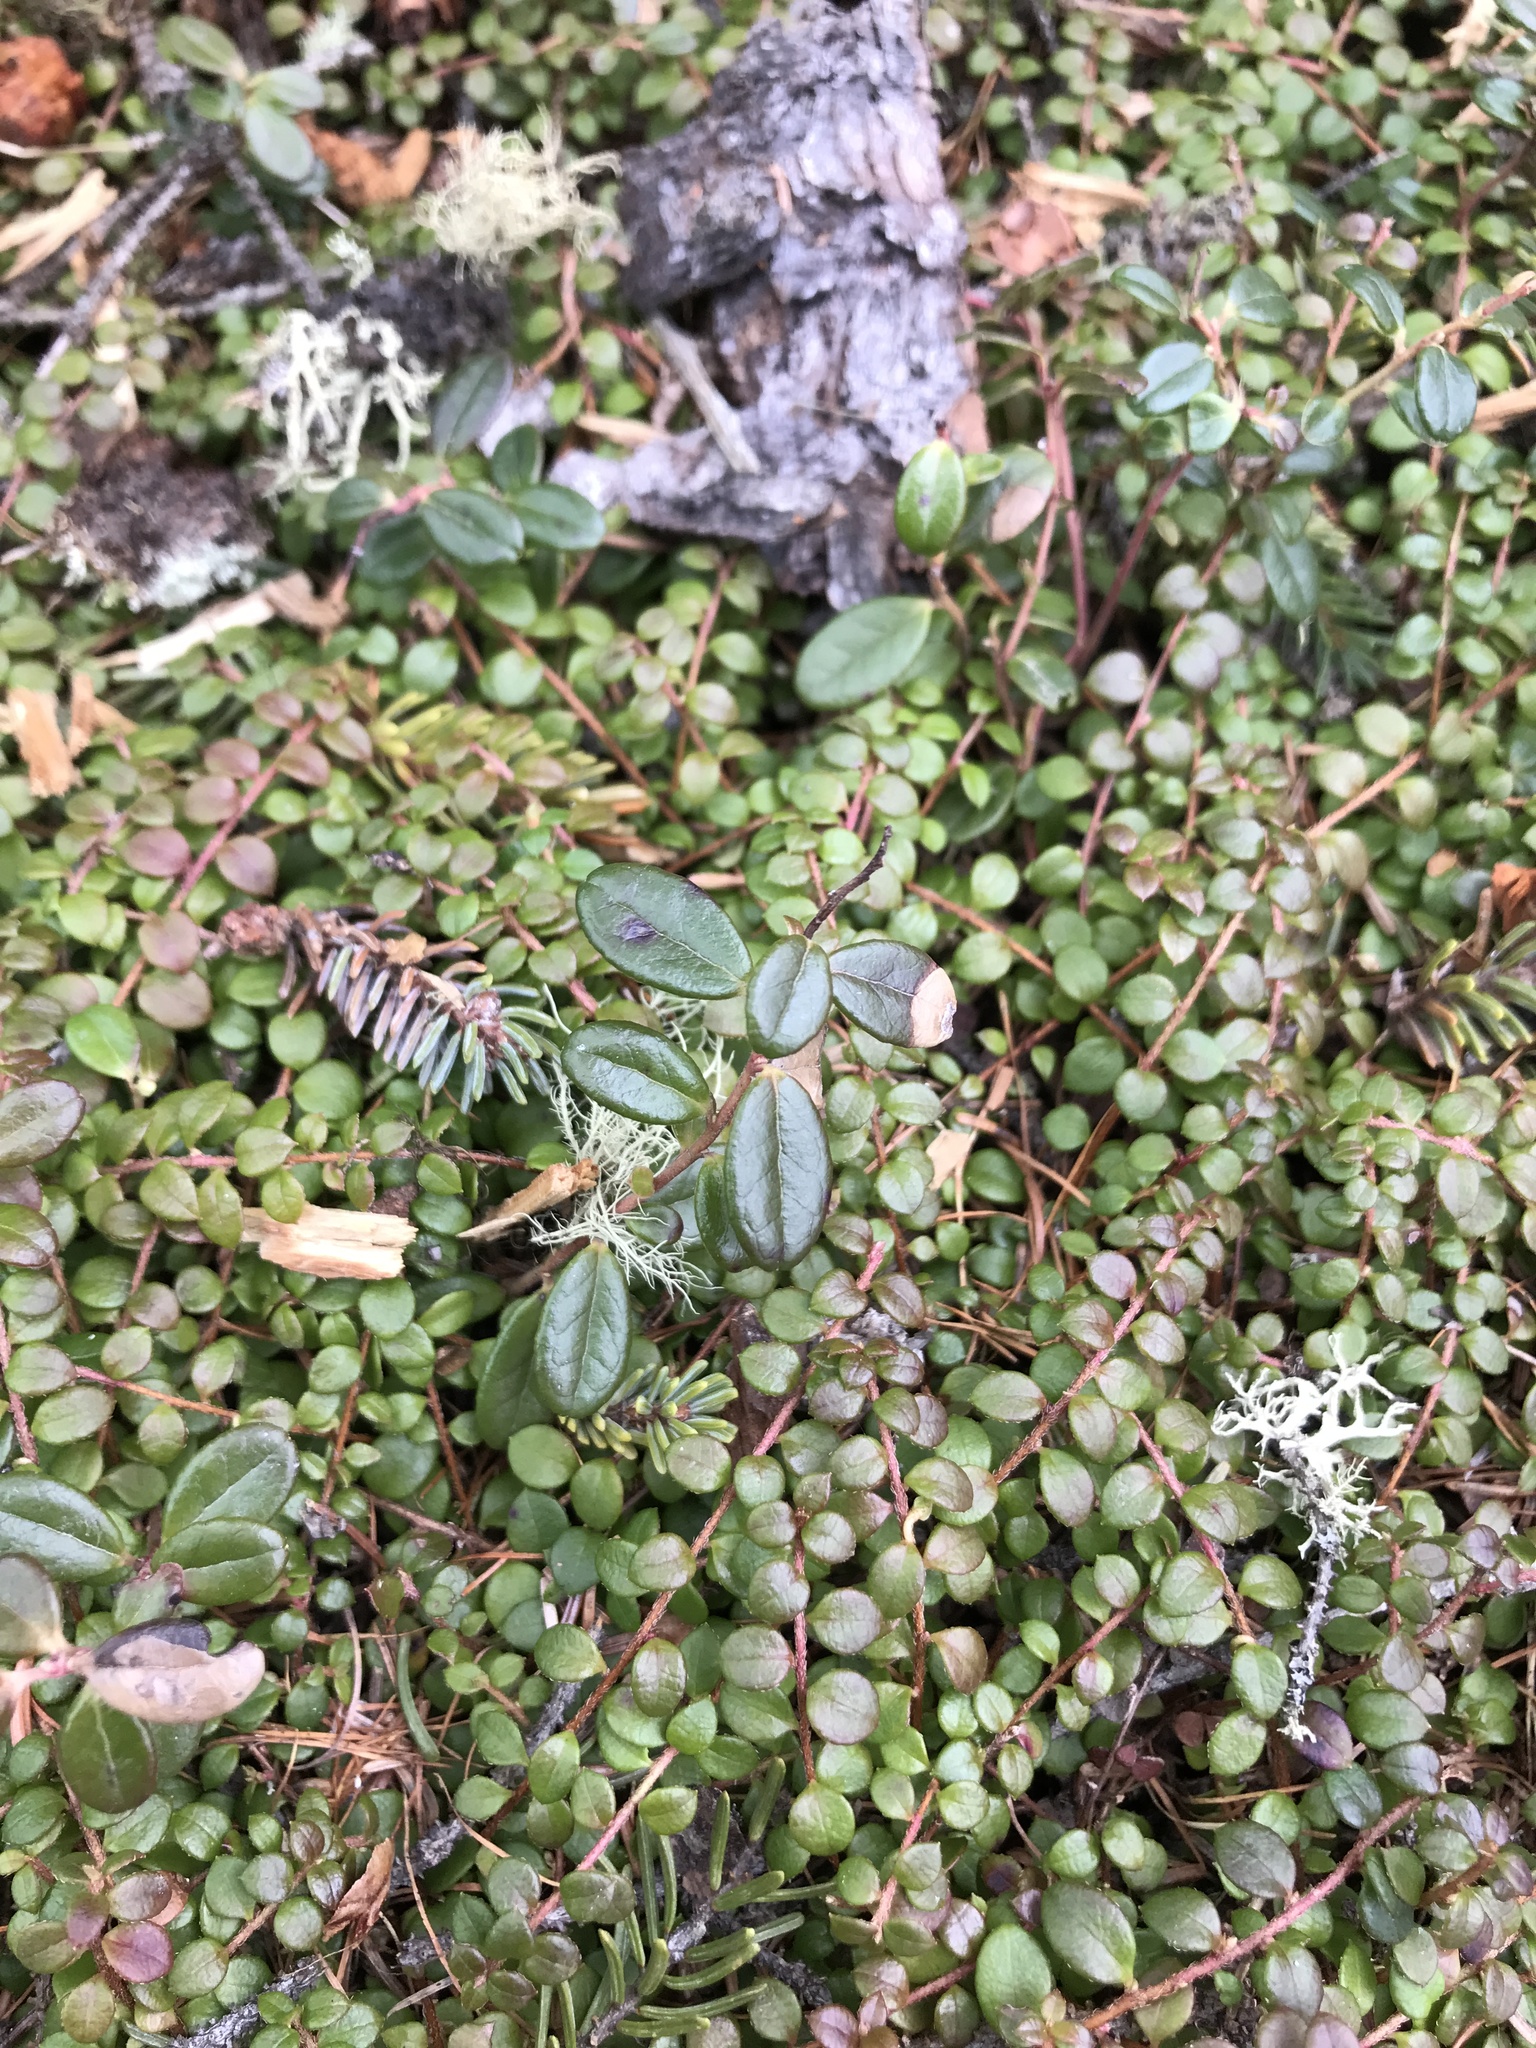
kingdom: Plantae
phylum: Tracheophyta
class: Magnoliopsida
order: Ericales
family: Ericaceae
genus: Vaccinium
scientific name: Vaccinium vitis-idaea
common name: Cowberry
